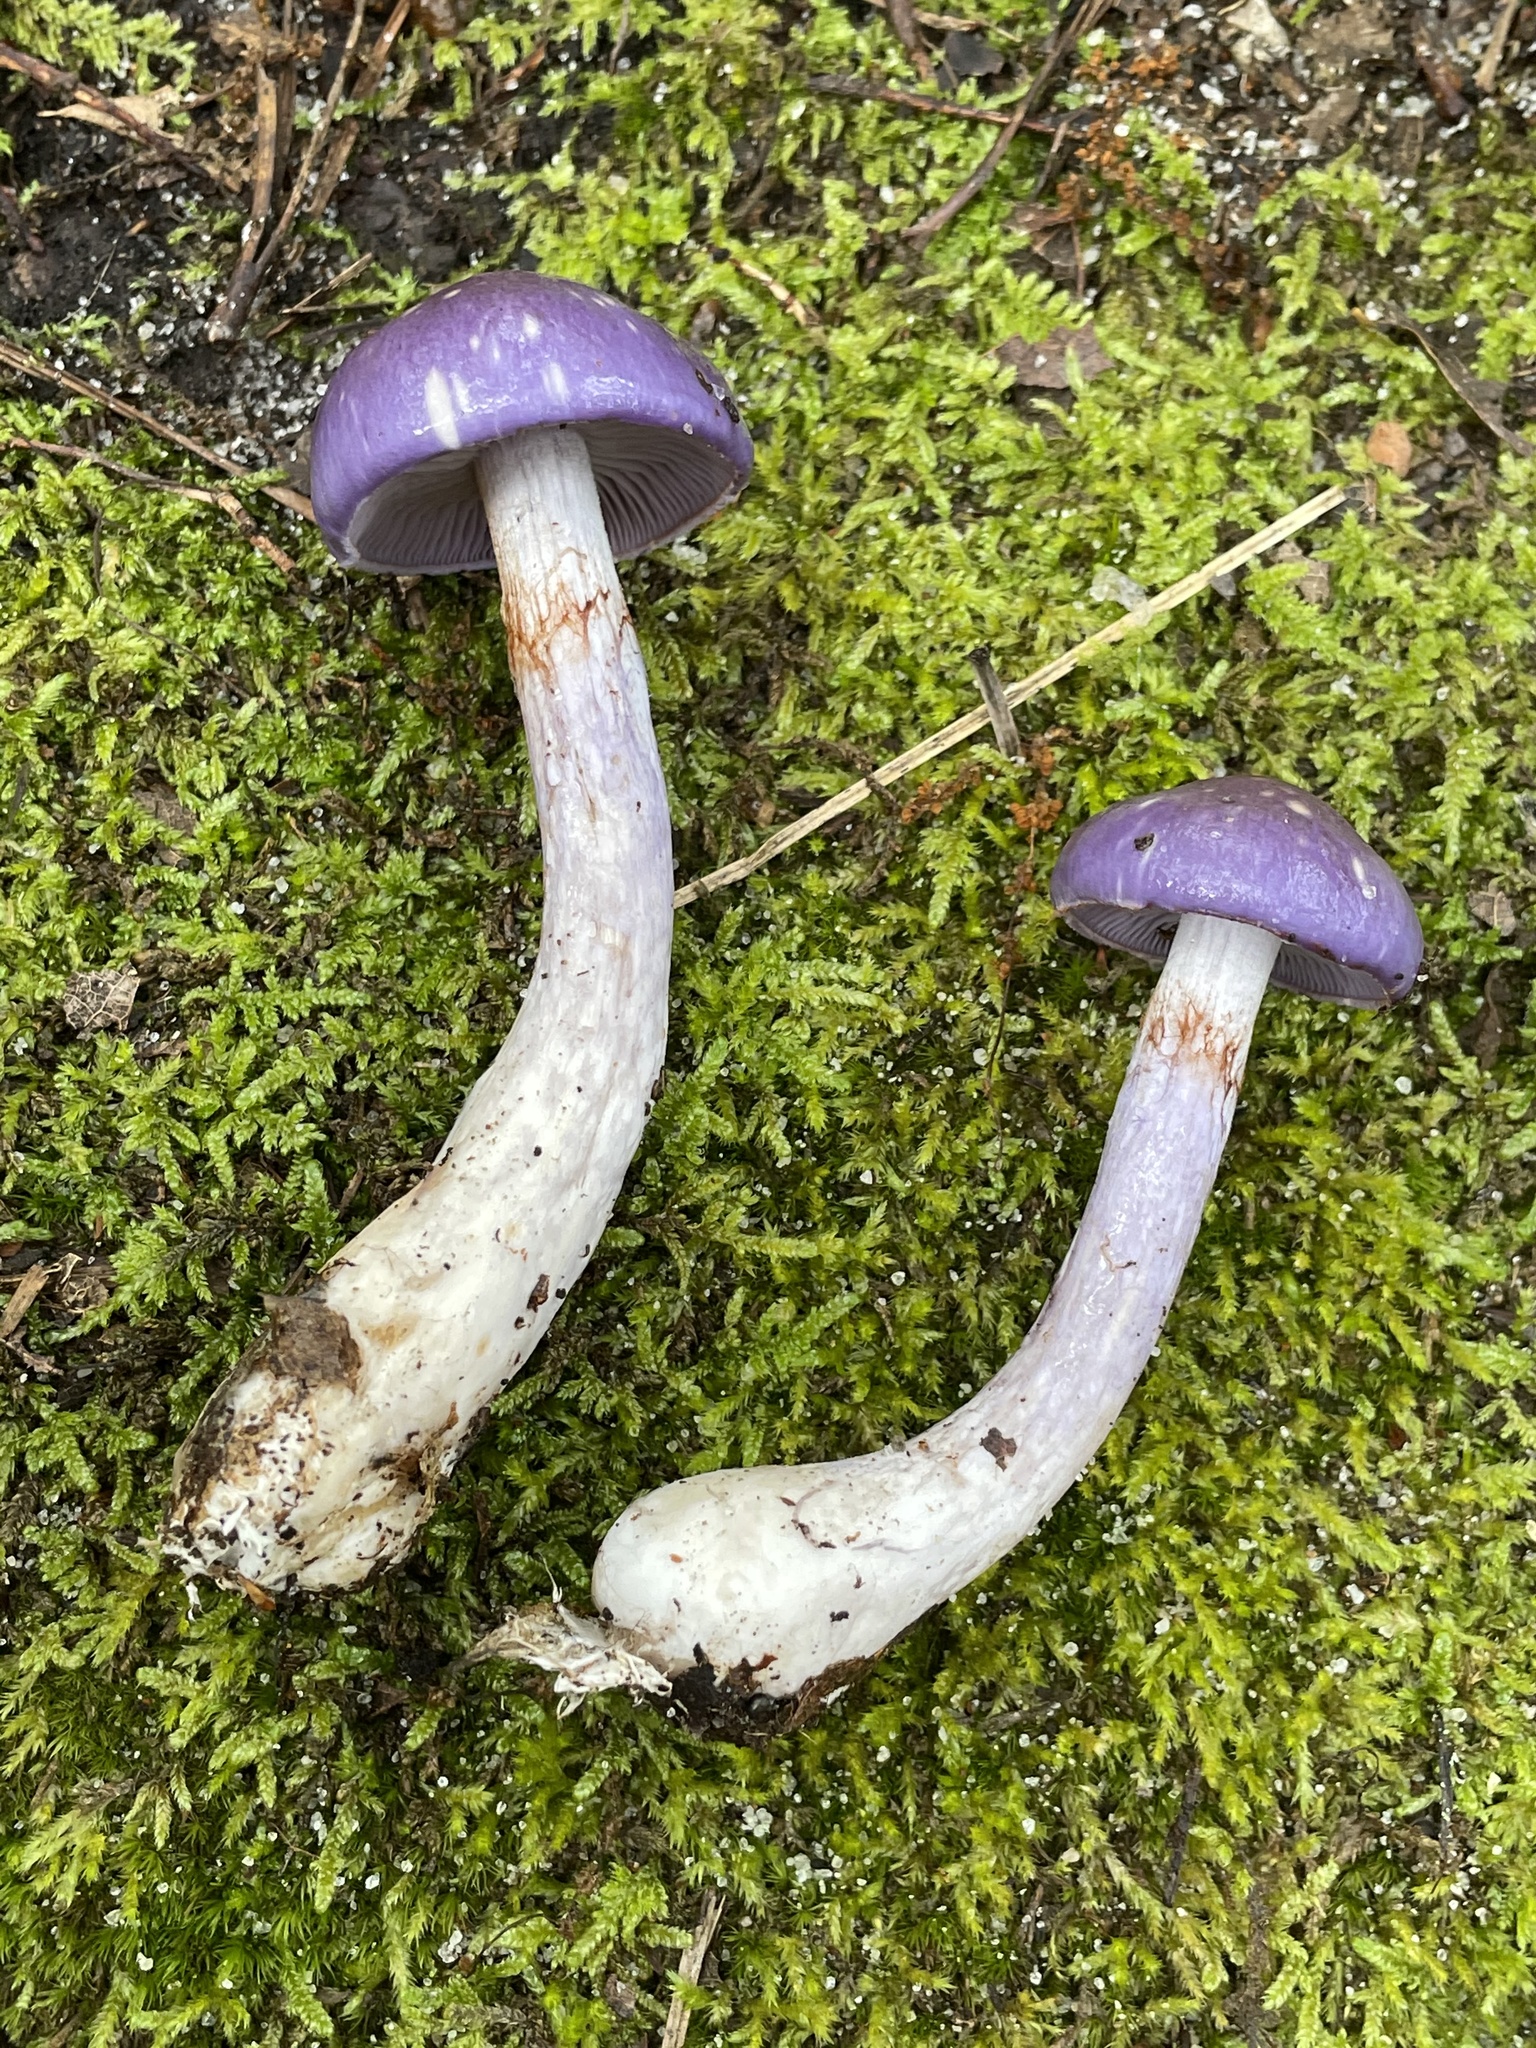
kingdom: Fungi
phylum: Basidiomycota
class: Agaricomycetes
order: Agaricales
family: Cortinariaceae
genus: Cortinarius
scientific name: Cortinarius iodes
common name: Viscid violet cort
